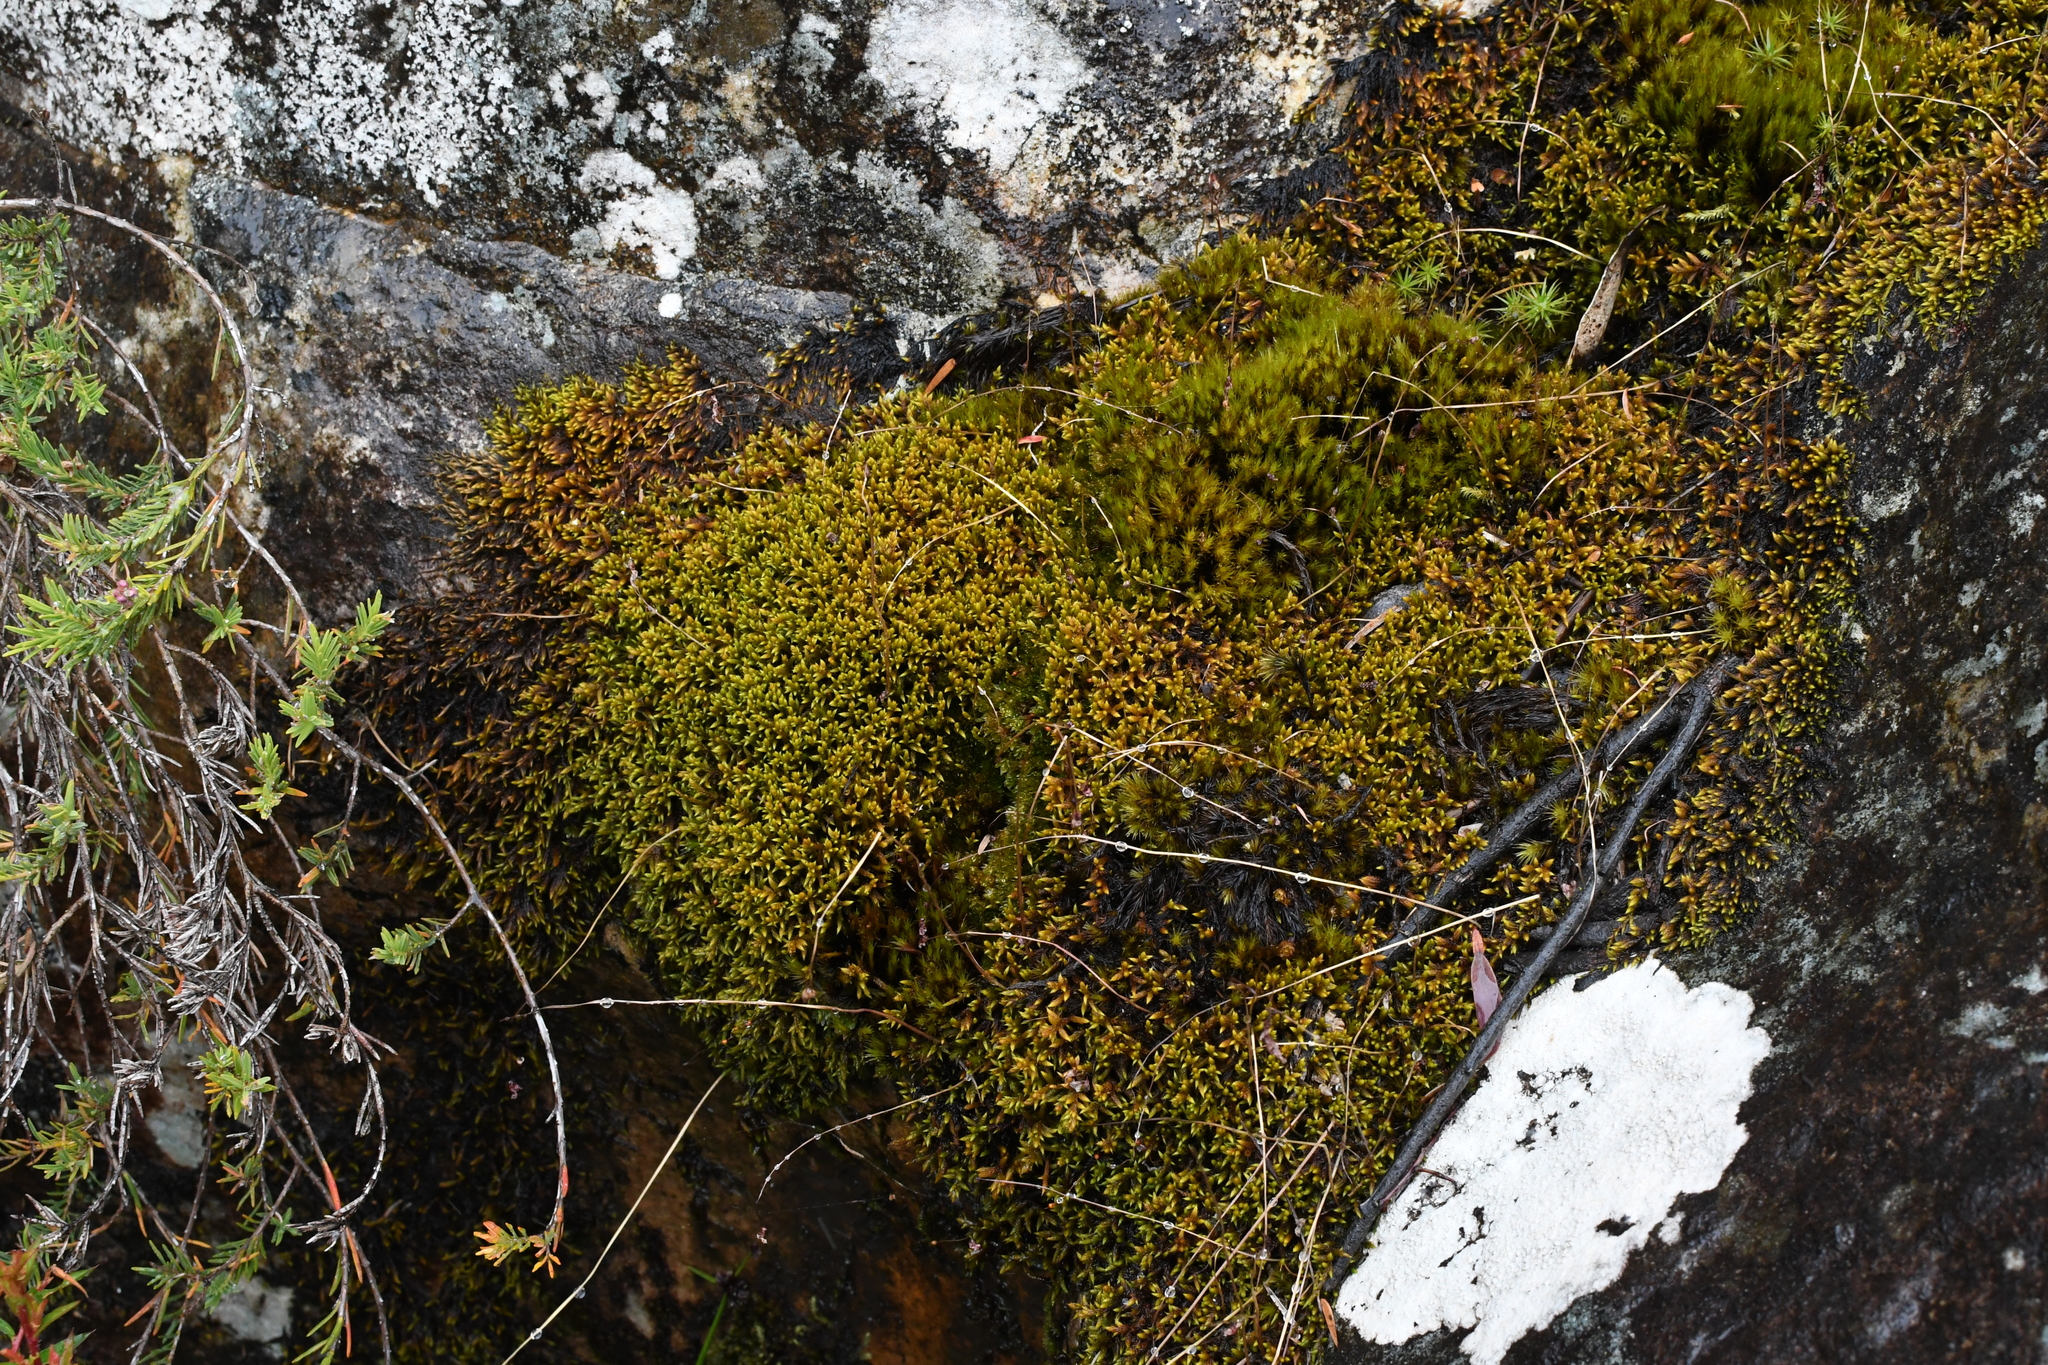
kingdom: Plantae
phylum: Bryophyta
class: Bryopsida
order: Hedwigiales
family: Hedwigiaceae
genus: Rhacocarpus
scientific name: Rhacocarpus purpurascens
